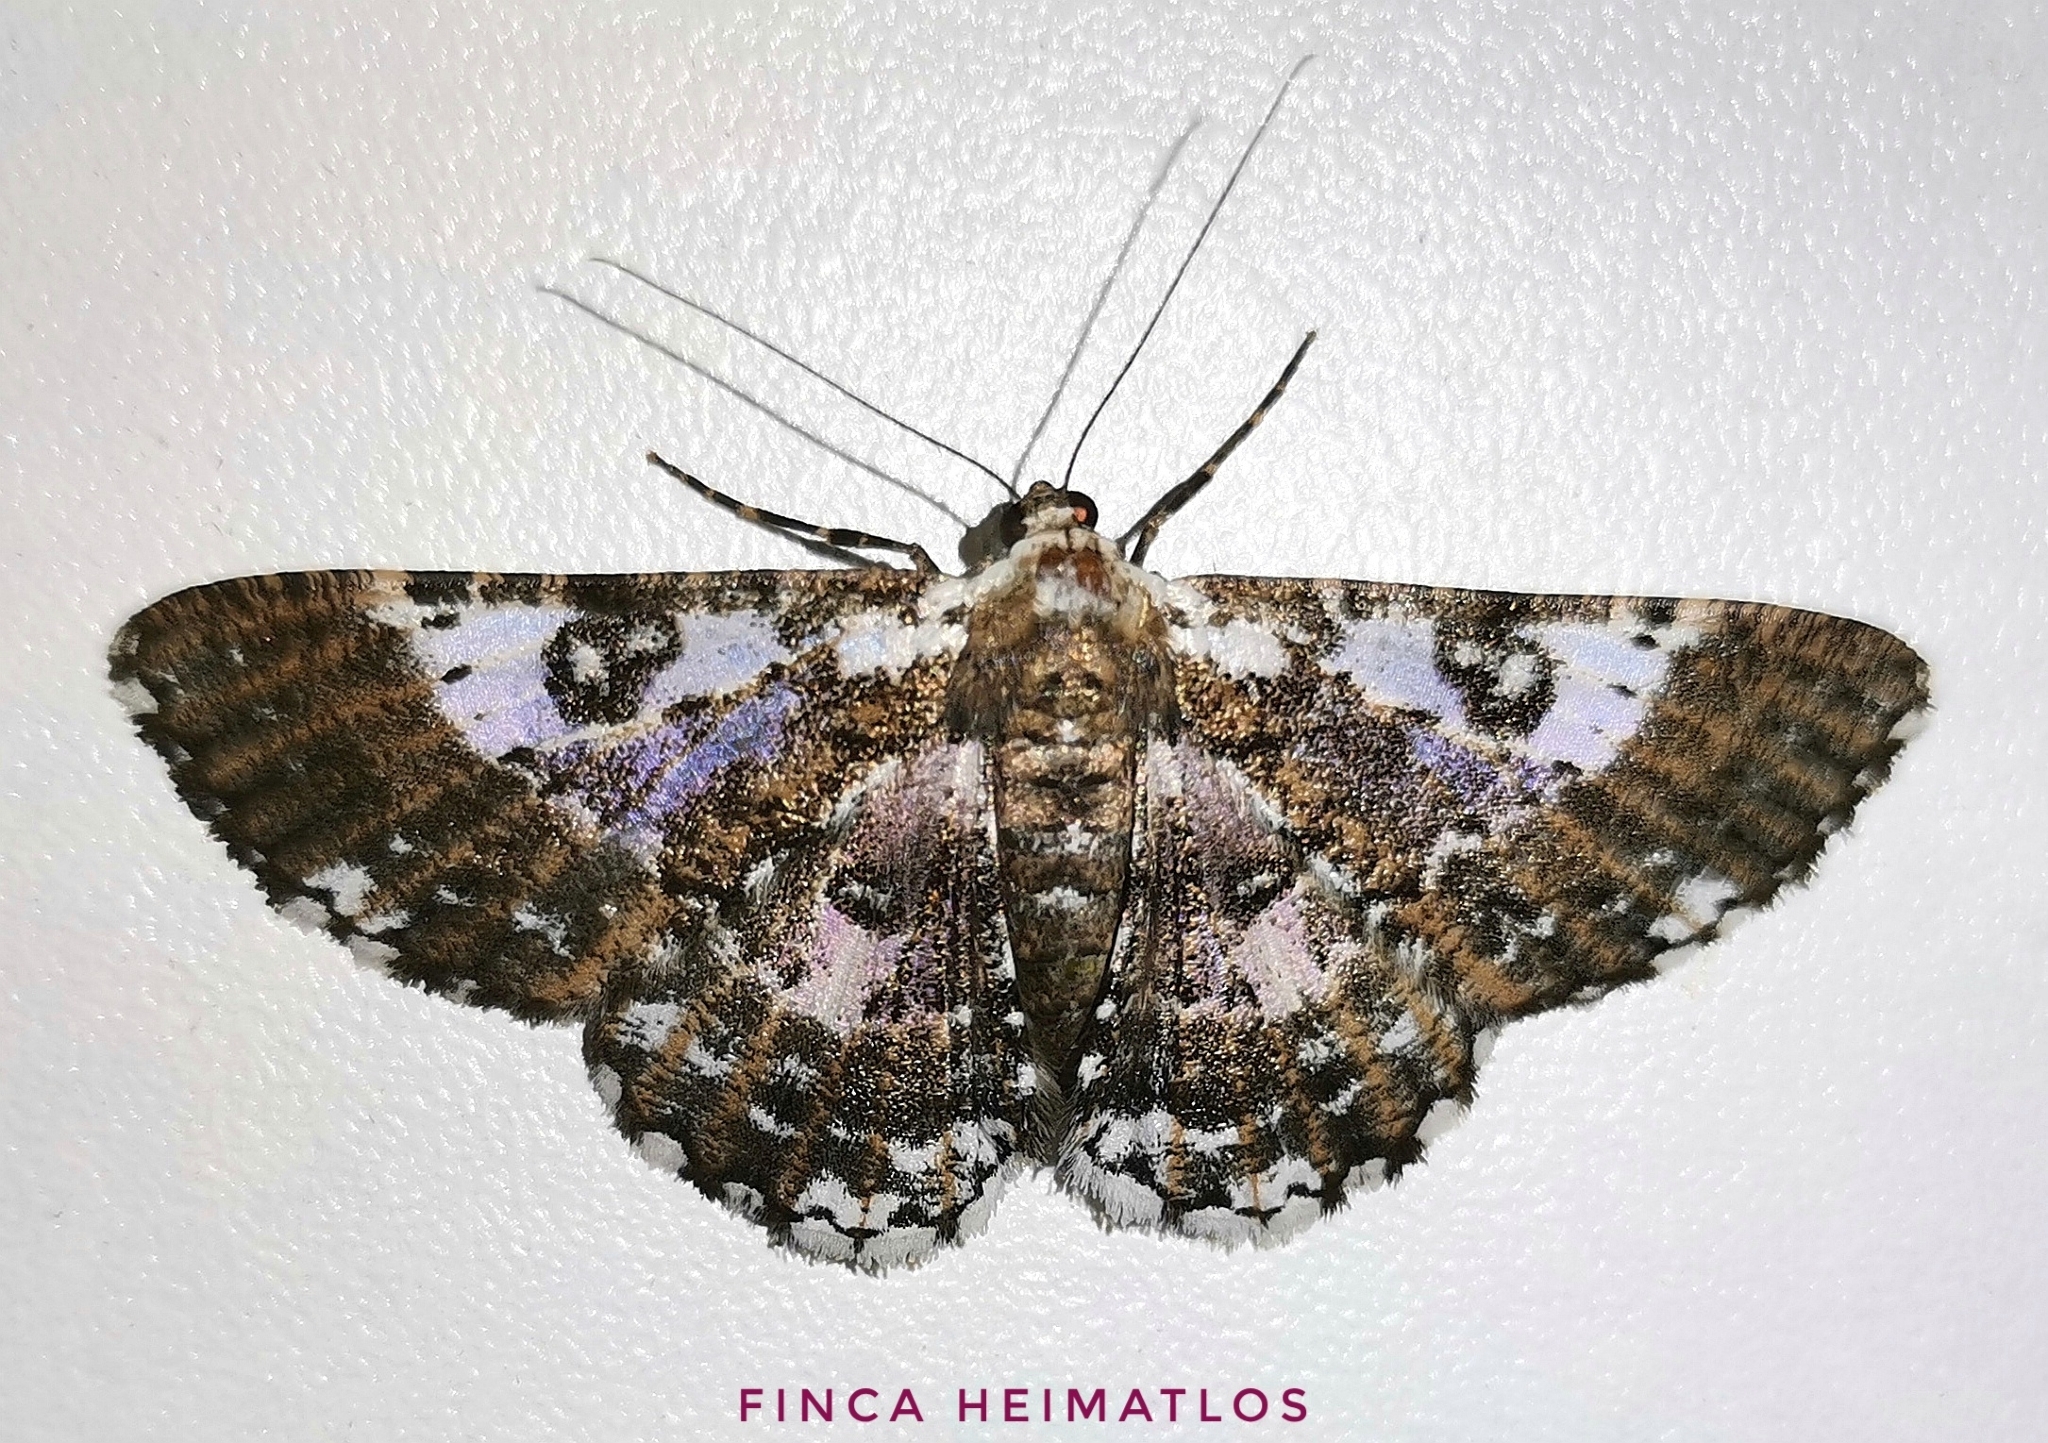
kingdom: Animalia
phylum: Arthropoda
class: Insecta
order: Lepidoptera
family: Geometridae
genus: Iridopsis
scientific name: Iridopsis validaria
